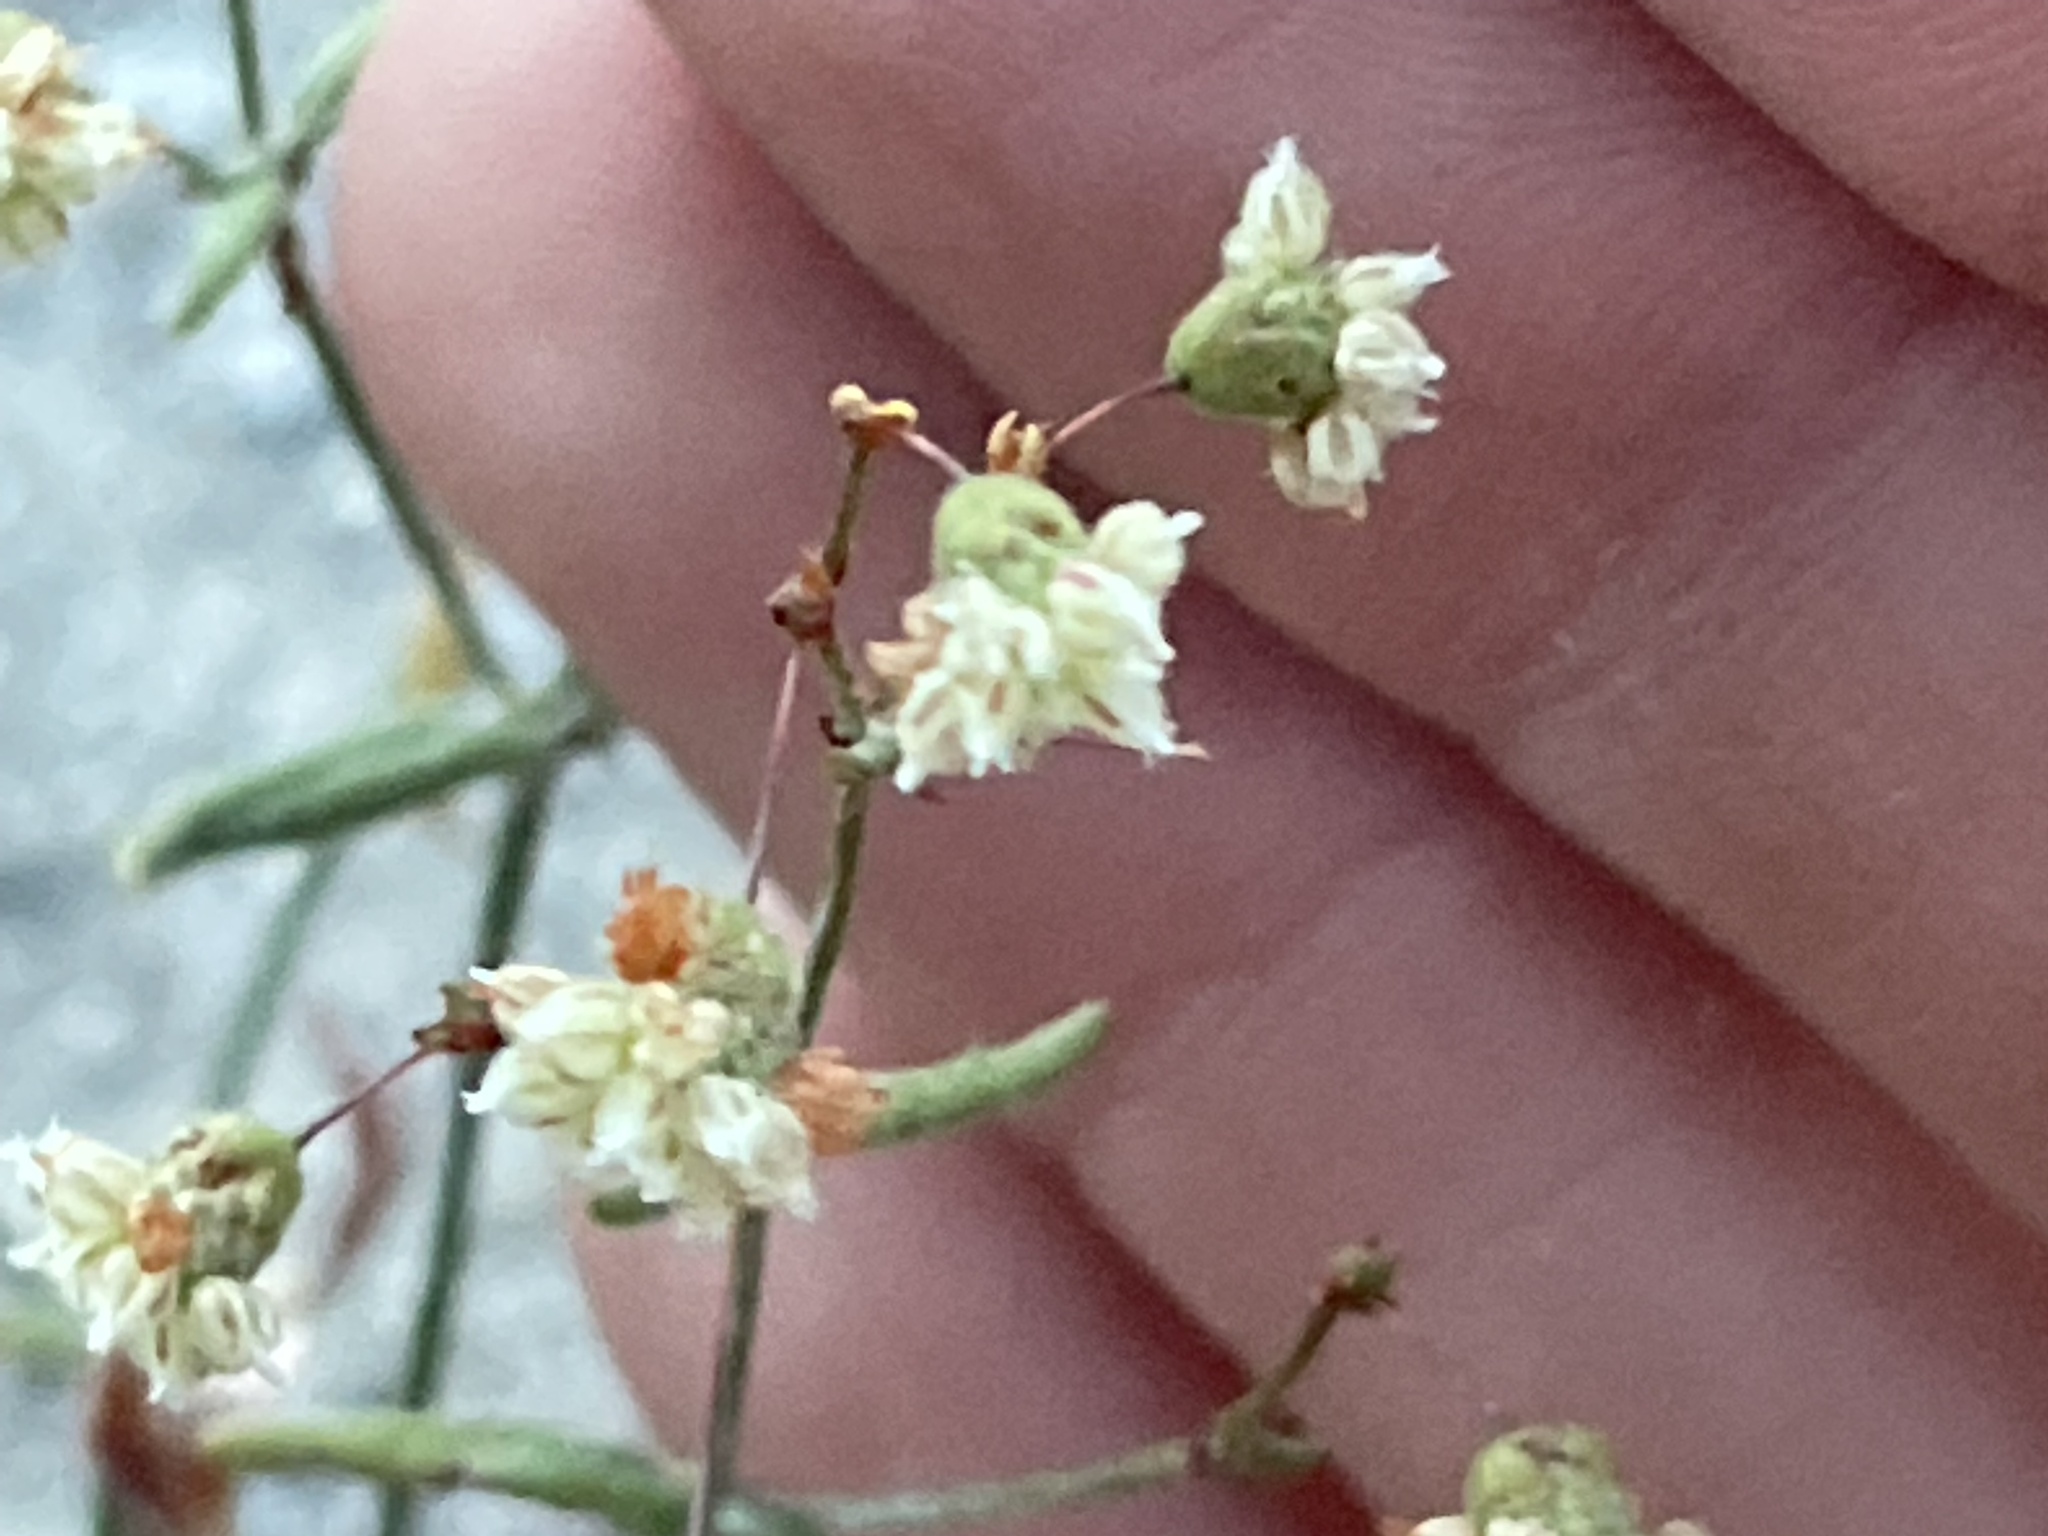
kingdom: Plantae
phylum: Tracheophyta
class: Magnoliopsida
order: Caryophyllales
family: Polygonaceae
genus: Eriogonum
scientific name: Eriogonum maculatum
